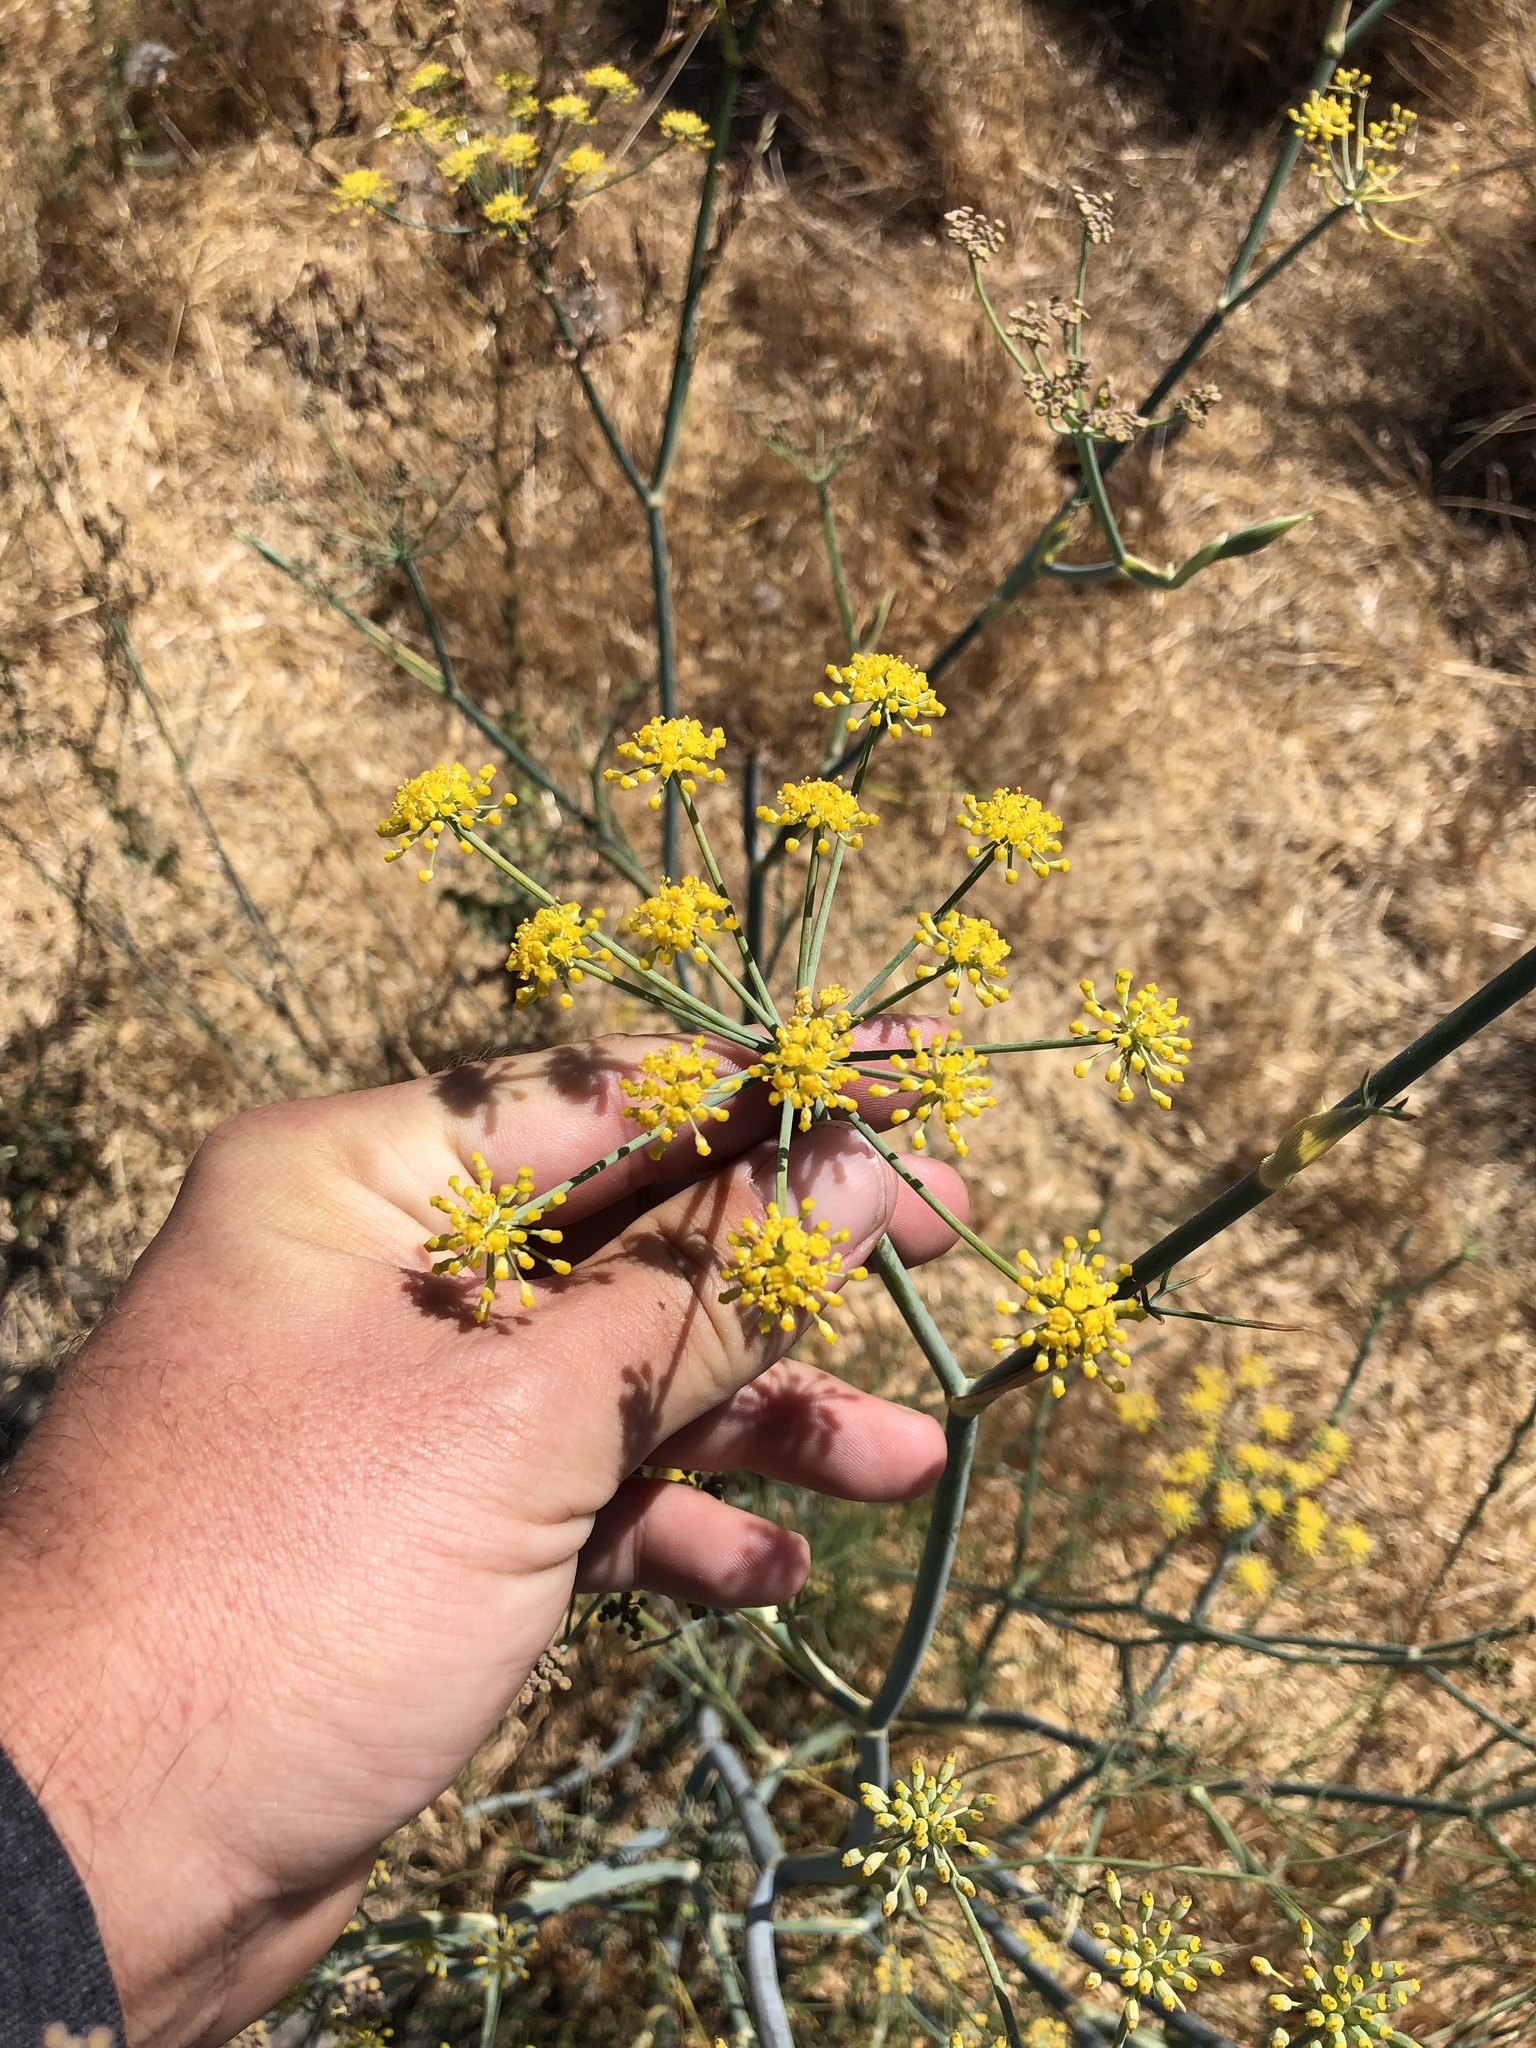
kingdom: Plantae
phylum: Tracheophyta
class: Magnoliopsida
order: Apiales
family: Apiaceae
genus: Foeniculum
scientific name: Foeniculum vulgare
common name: Fennel
